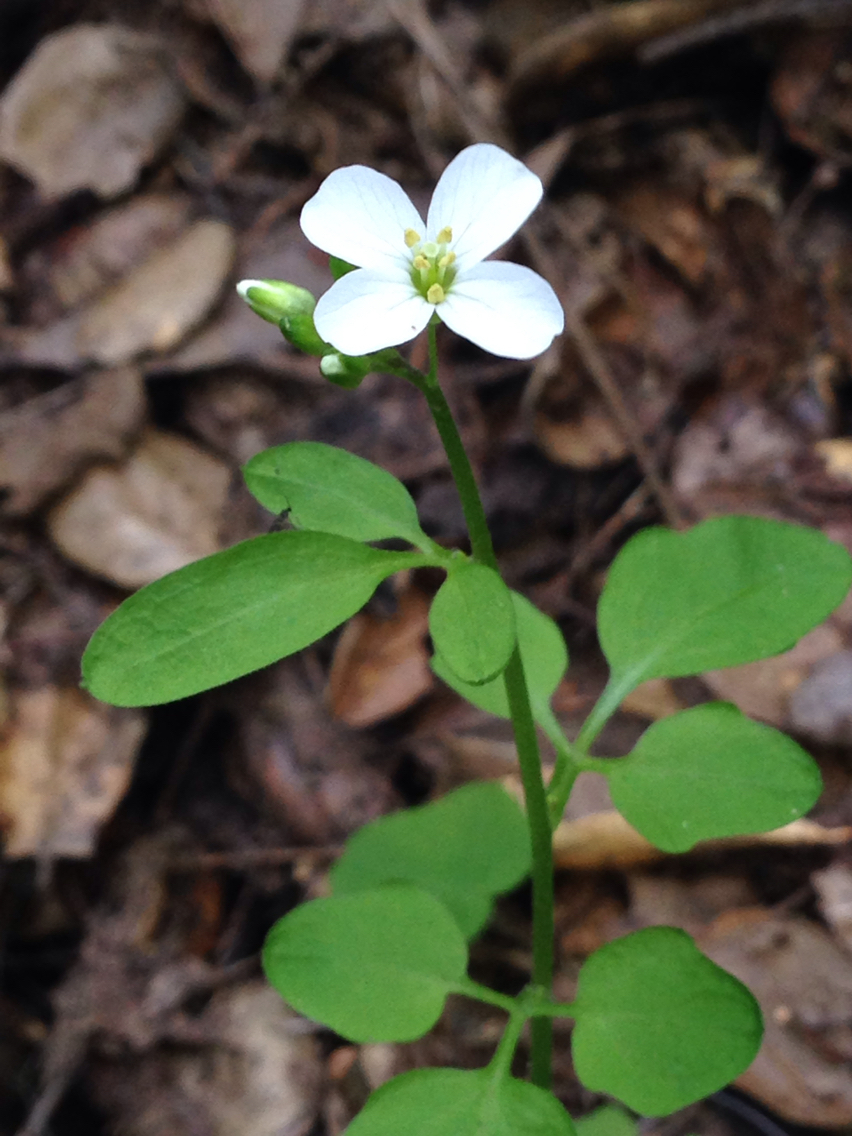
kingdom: Plantae
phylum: Tracheophyta
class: Magnoliopsida
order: Brassicales
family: Brassicaceae
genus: Cardamine
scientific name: Cardamine californica
